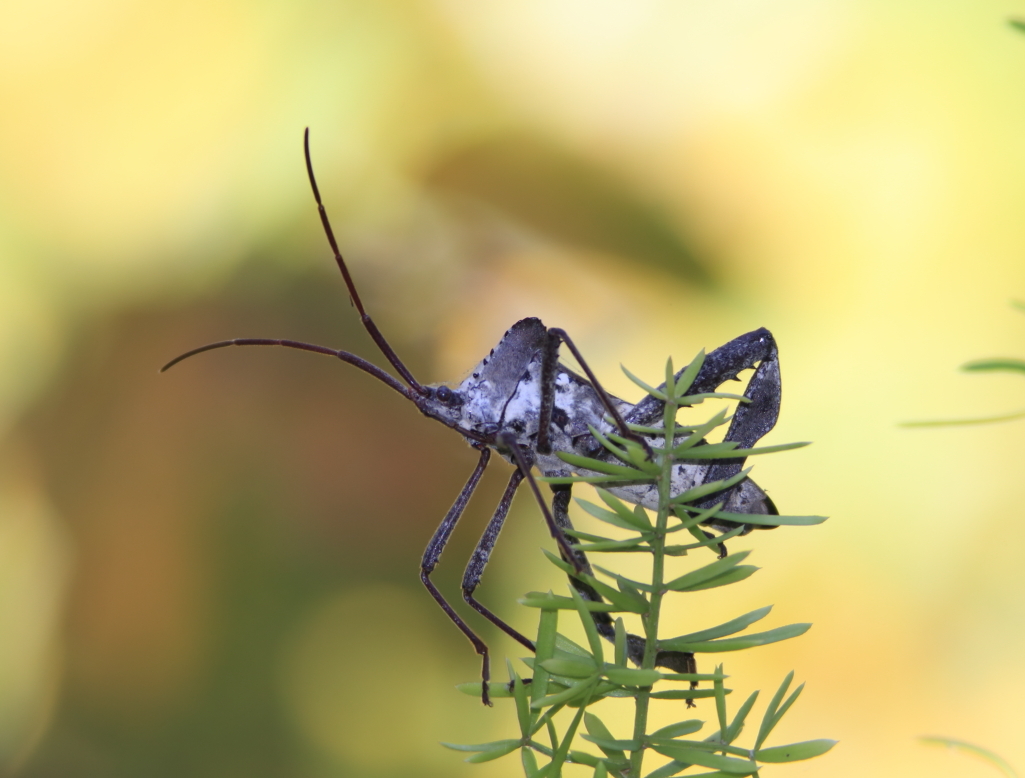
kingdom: Animalia
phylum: Arthropoda
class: Insecta
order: Hemiptera
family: Coreidae
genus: Acanthocephala
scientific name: Acanthocephala declivis
